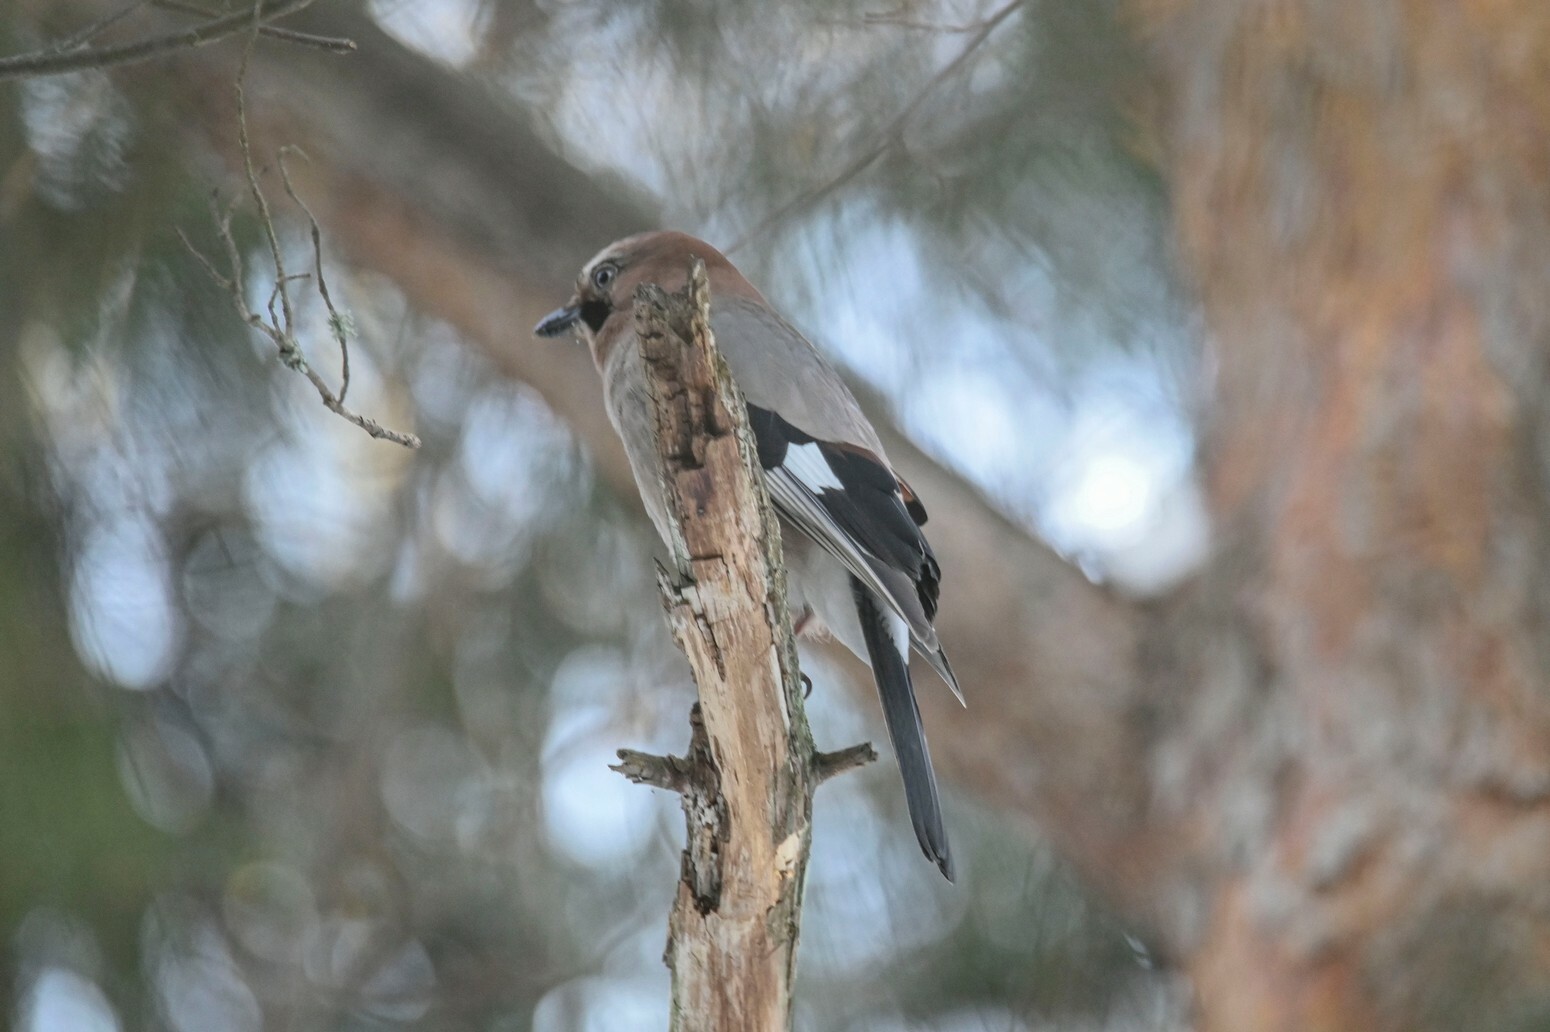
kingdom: Animalia
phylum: Chordata
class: Aves
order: Passeriformes
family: Corvidae
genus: Garrulus
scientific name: Garrulus glandarius
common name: Eurasian jay
